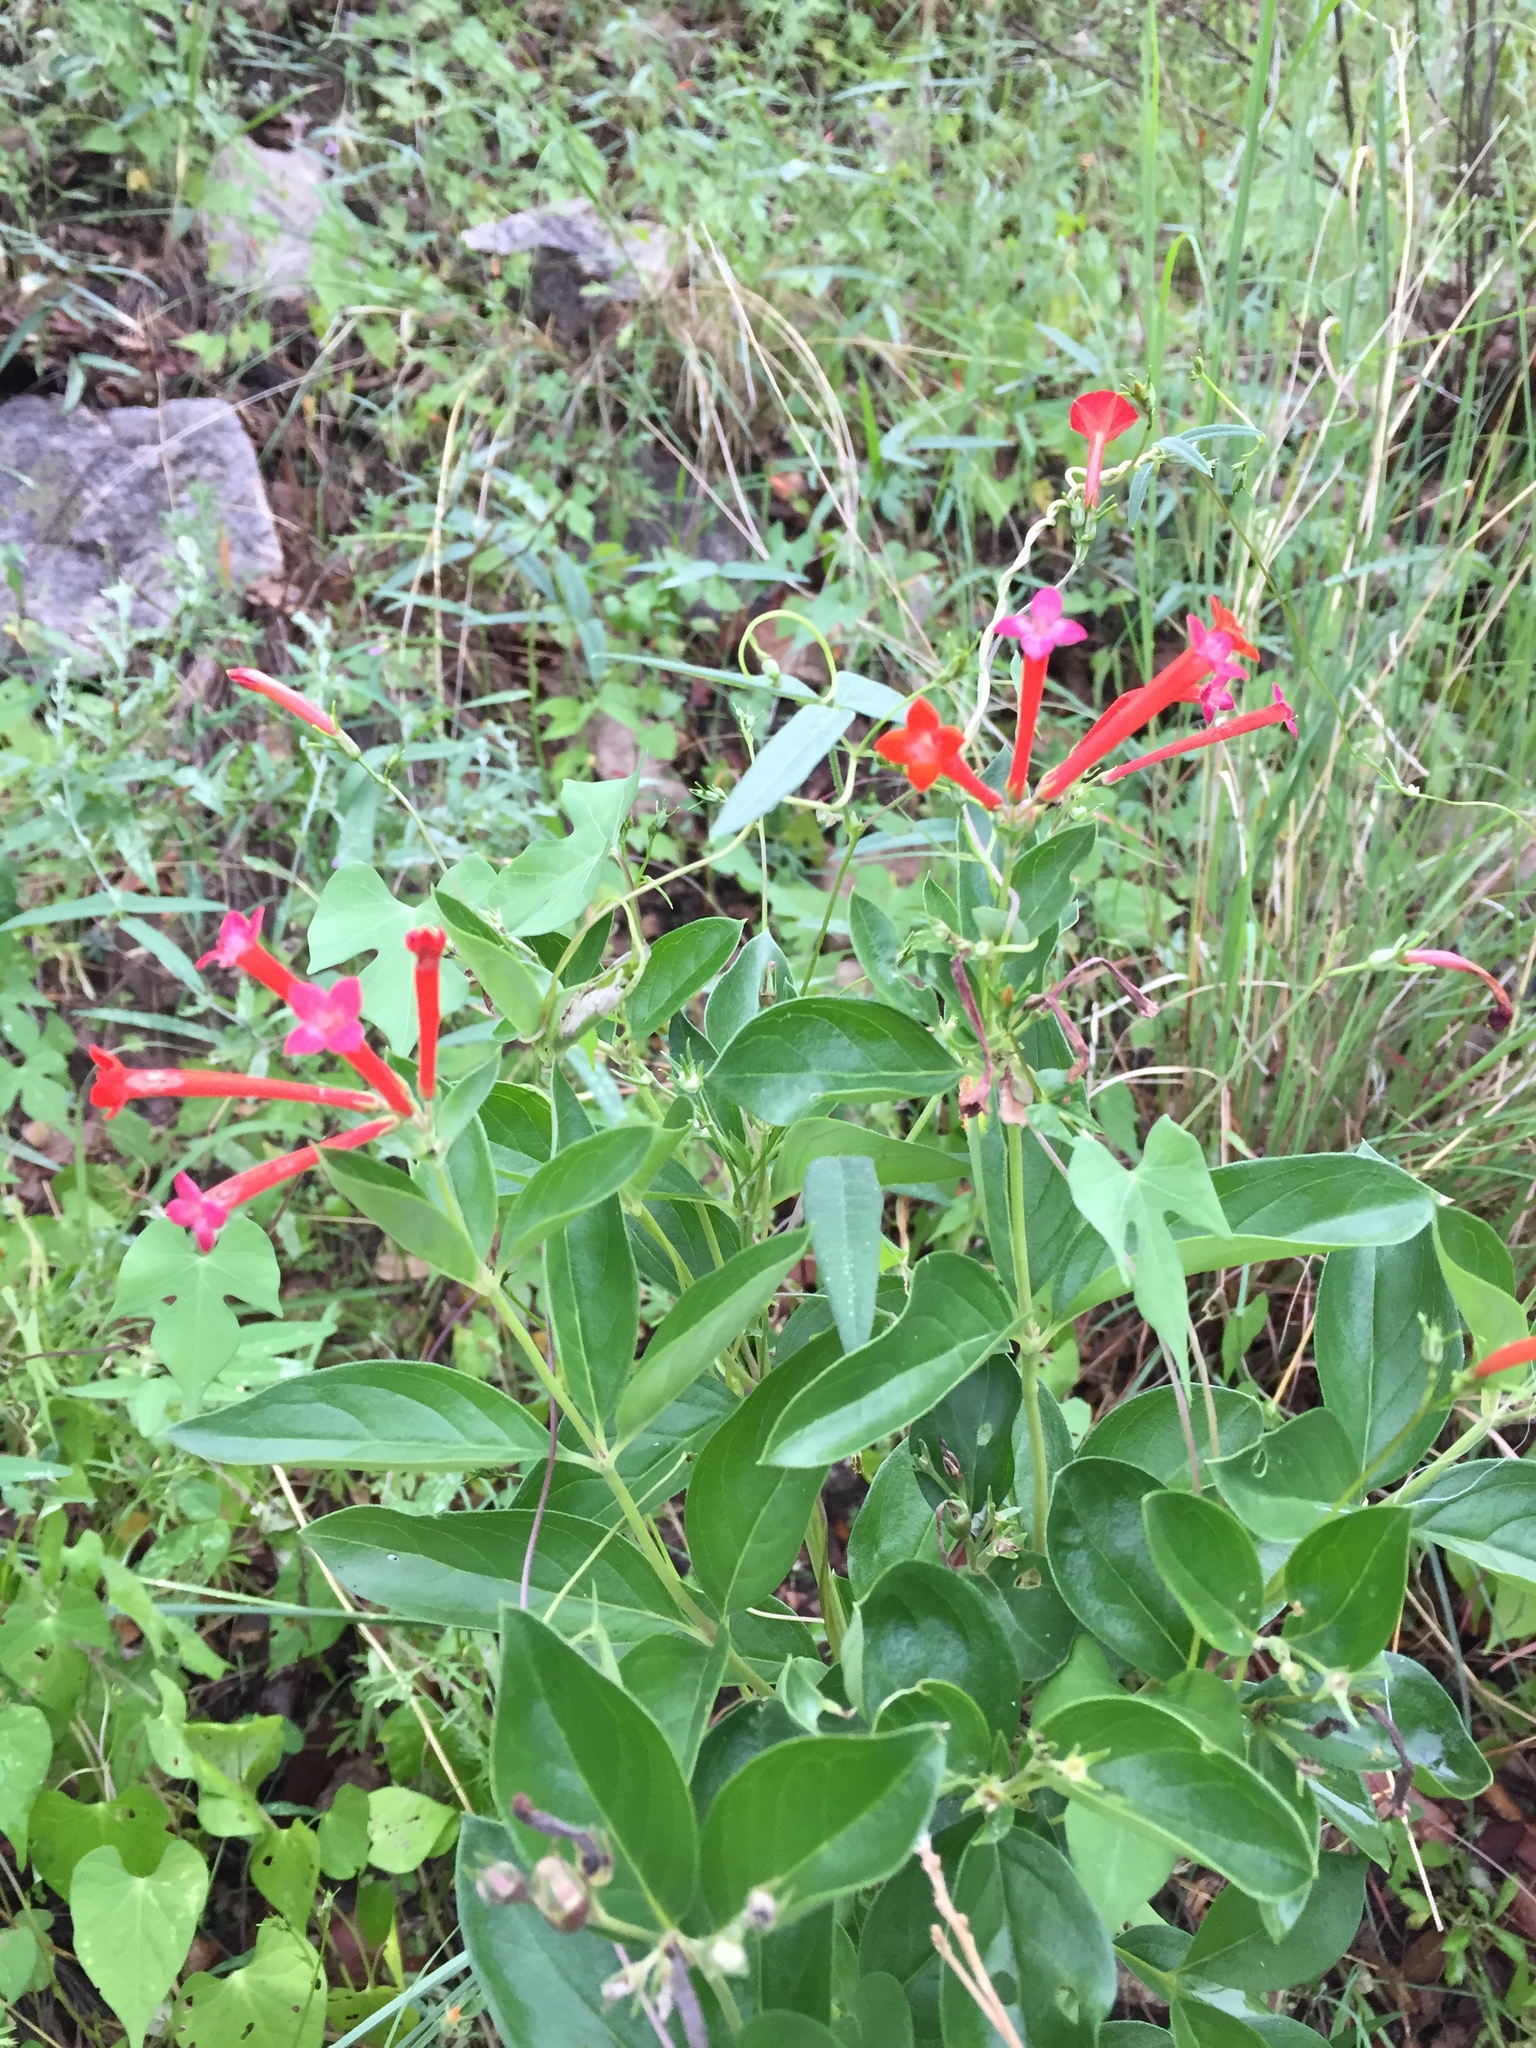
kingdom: Plantae
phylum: Tracheophyta
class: Magnoliopsida
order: Gentianales
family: Rubiaceae
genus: Bouvardia
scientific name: Bouvardia ternifolia
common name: Scarlet bouvardia
